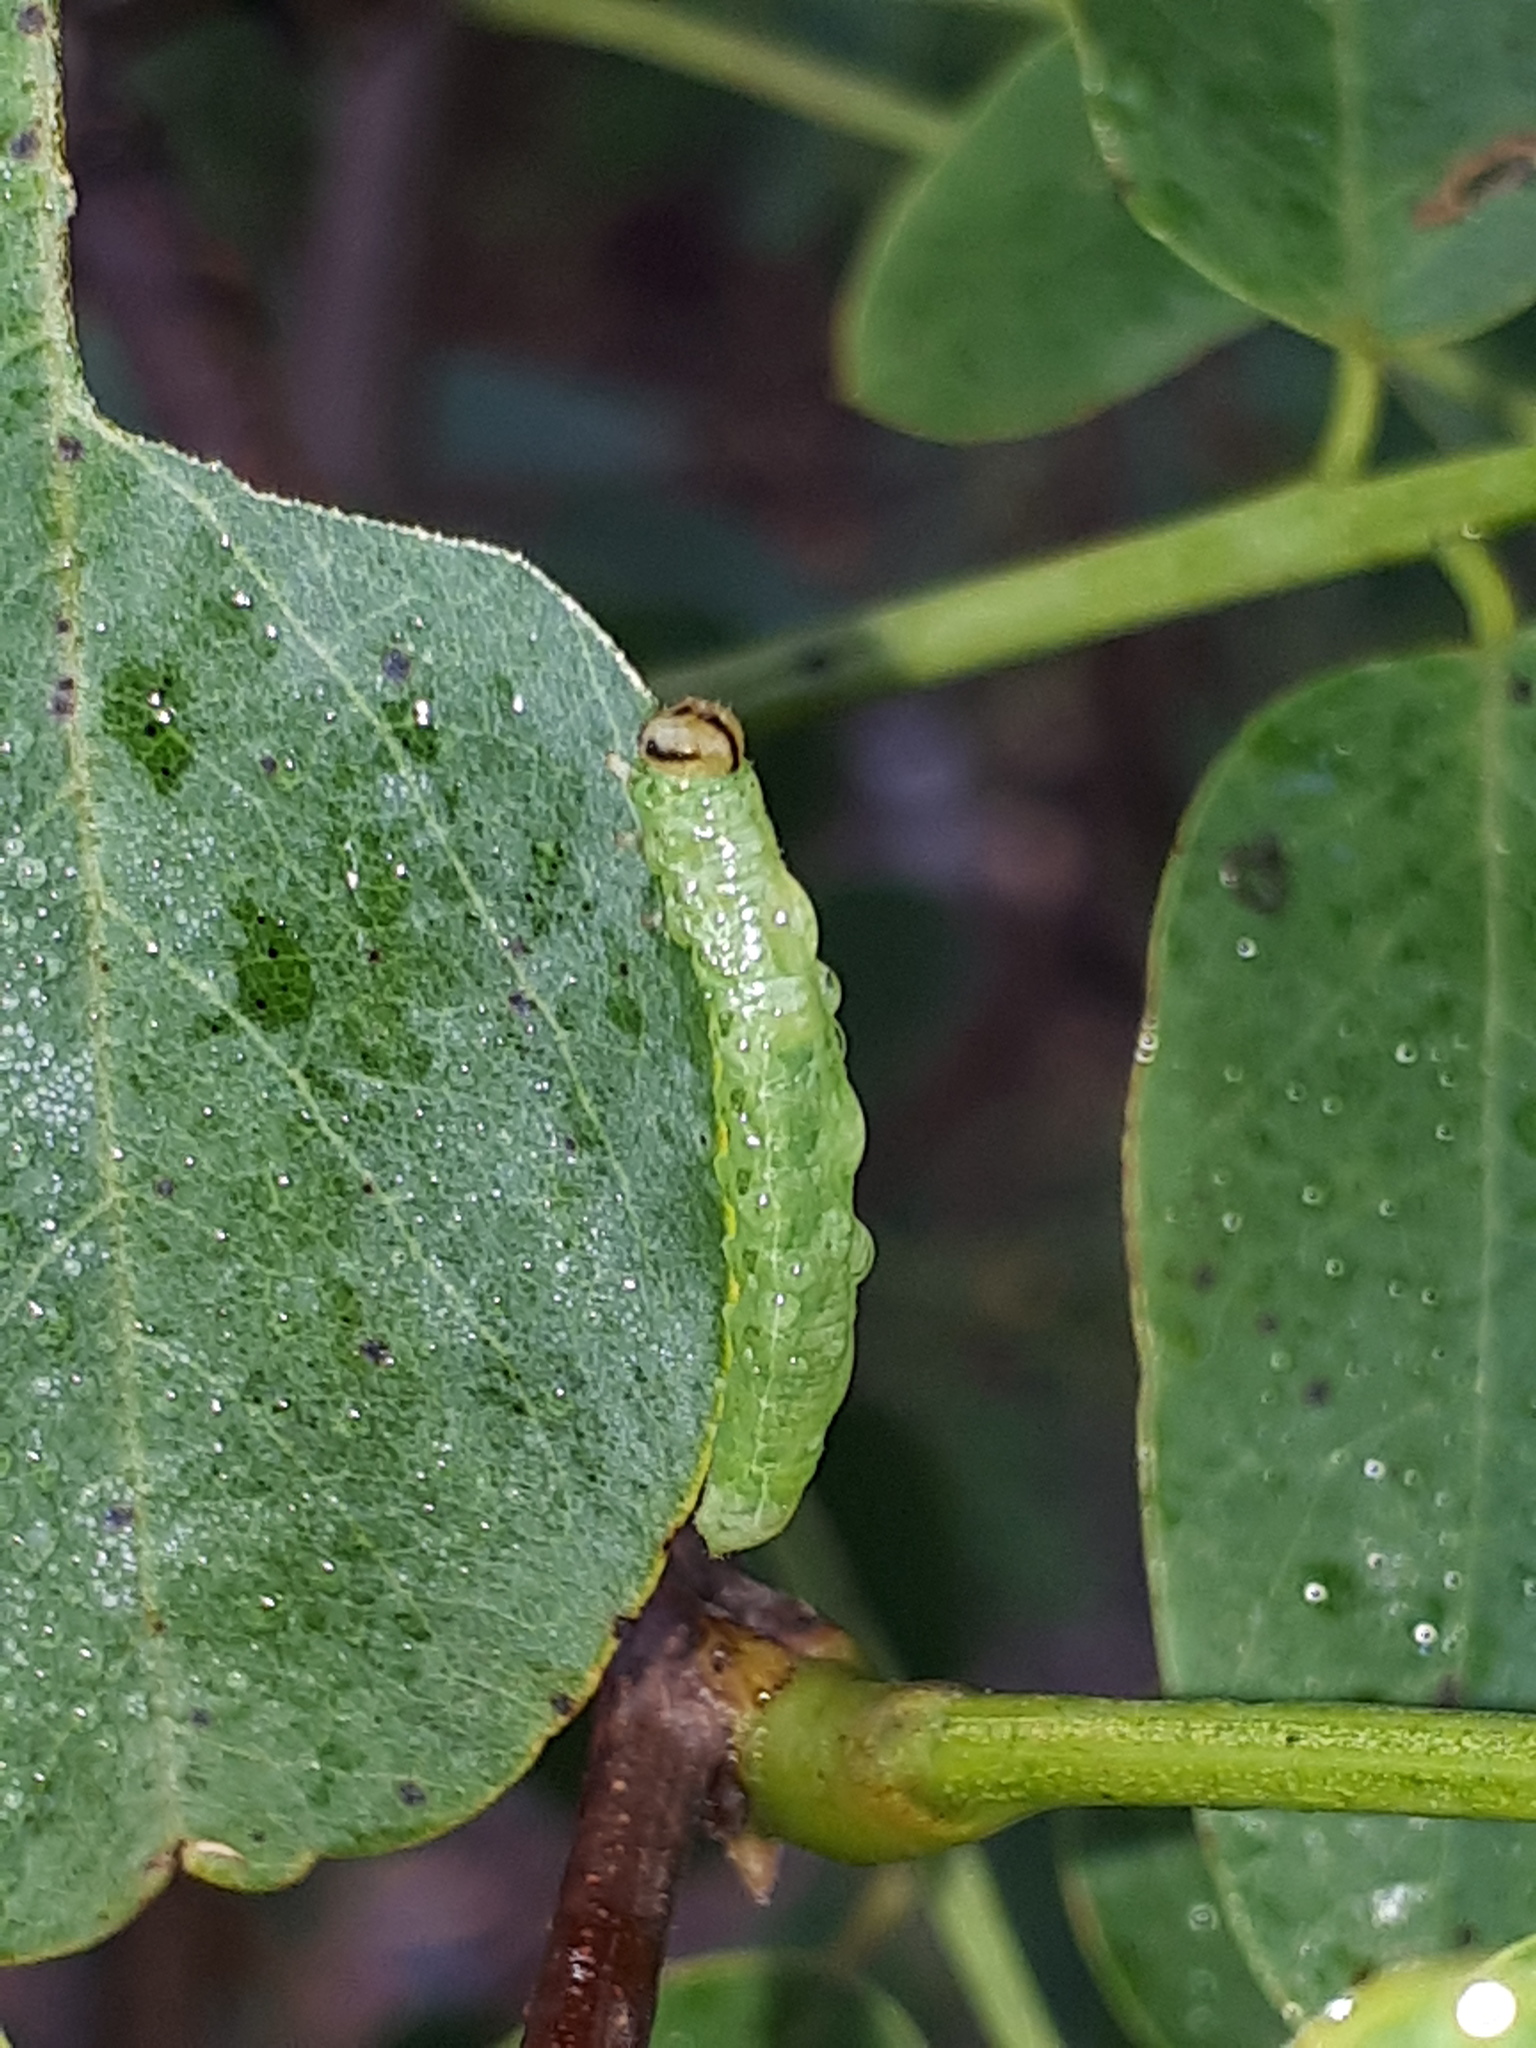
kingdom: Animalia
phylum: Arthropoda
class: Insecta
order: Hymenoptera
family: Tenthredinidae
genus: Euura
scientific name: Euura tibialis
